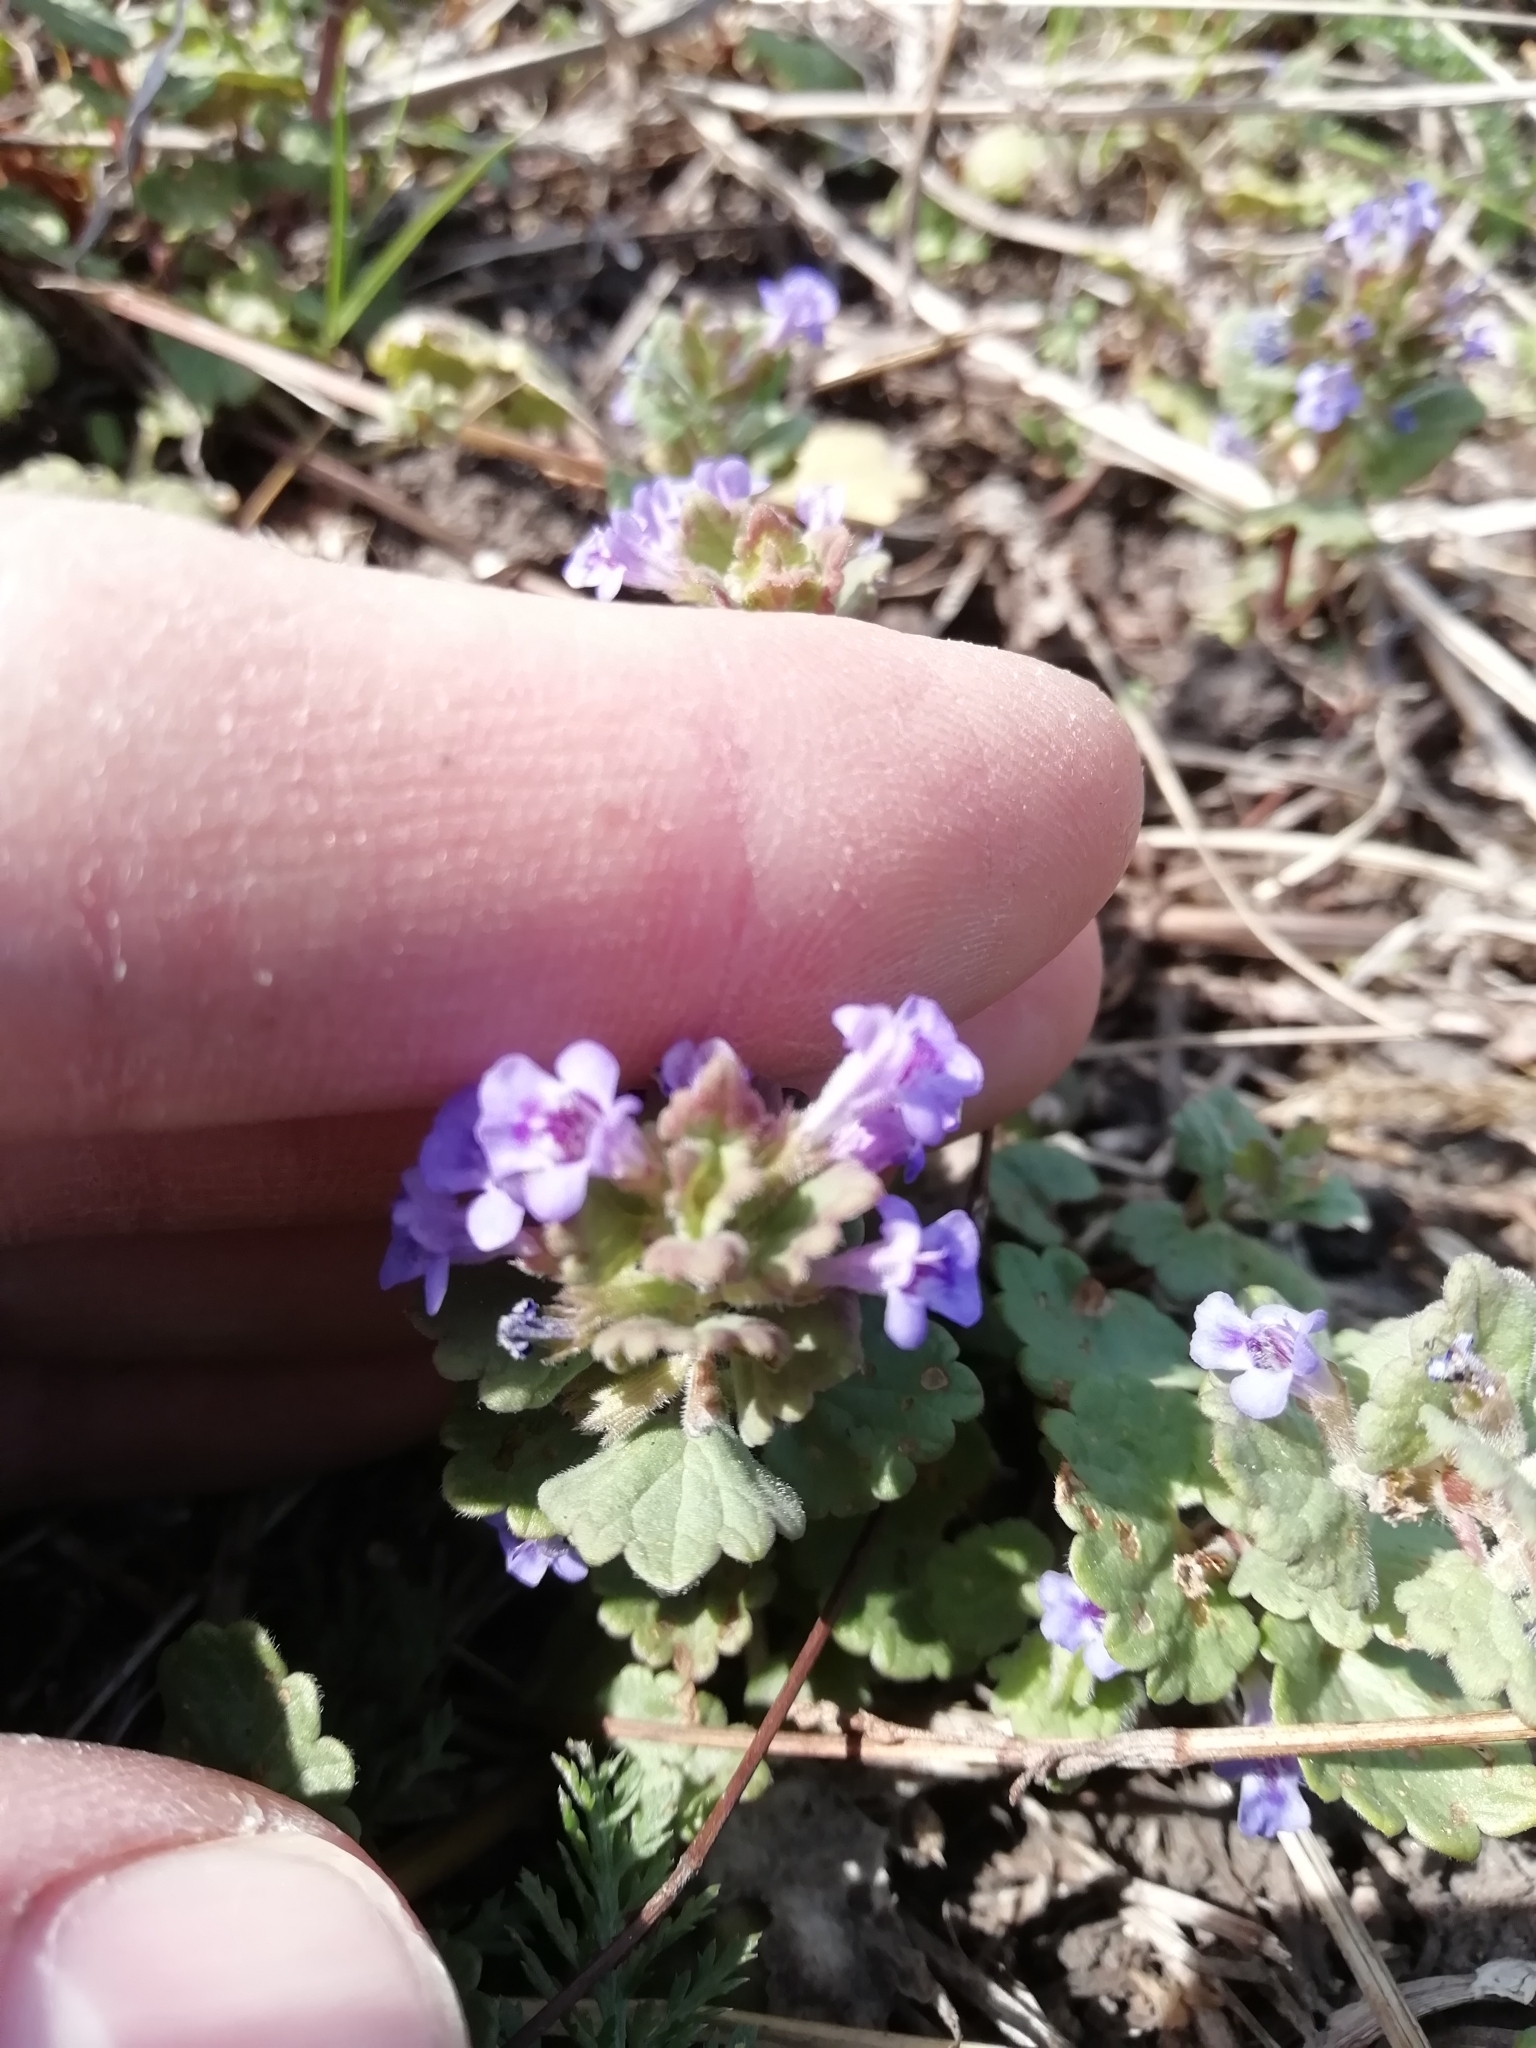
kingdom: Plantae
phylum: Tracheophyta
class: Magnoliopsida
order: Lamiales
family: Lamiaceae
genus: Glechoma
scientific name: Glechoma hederacea
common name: Ground ivy
